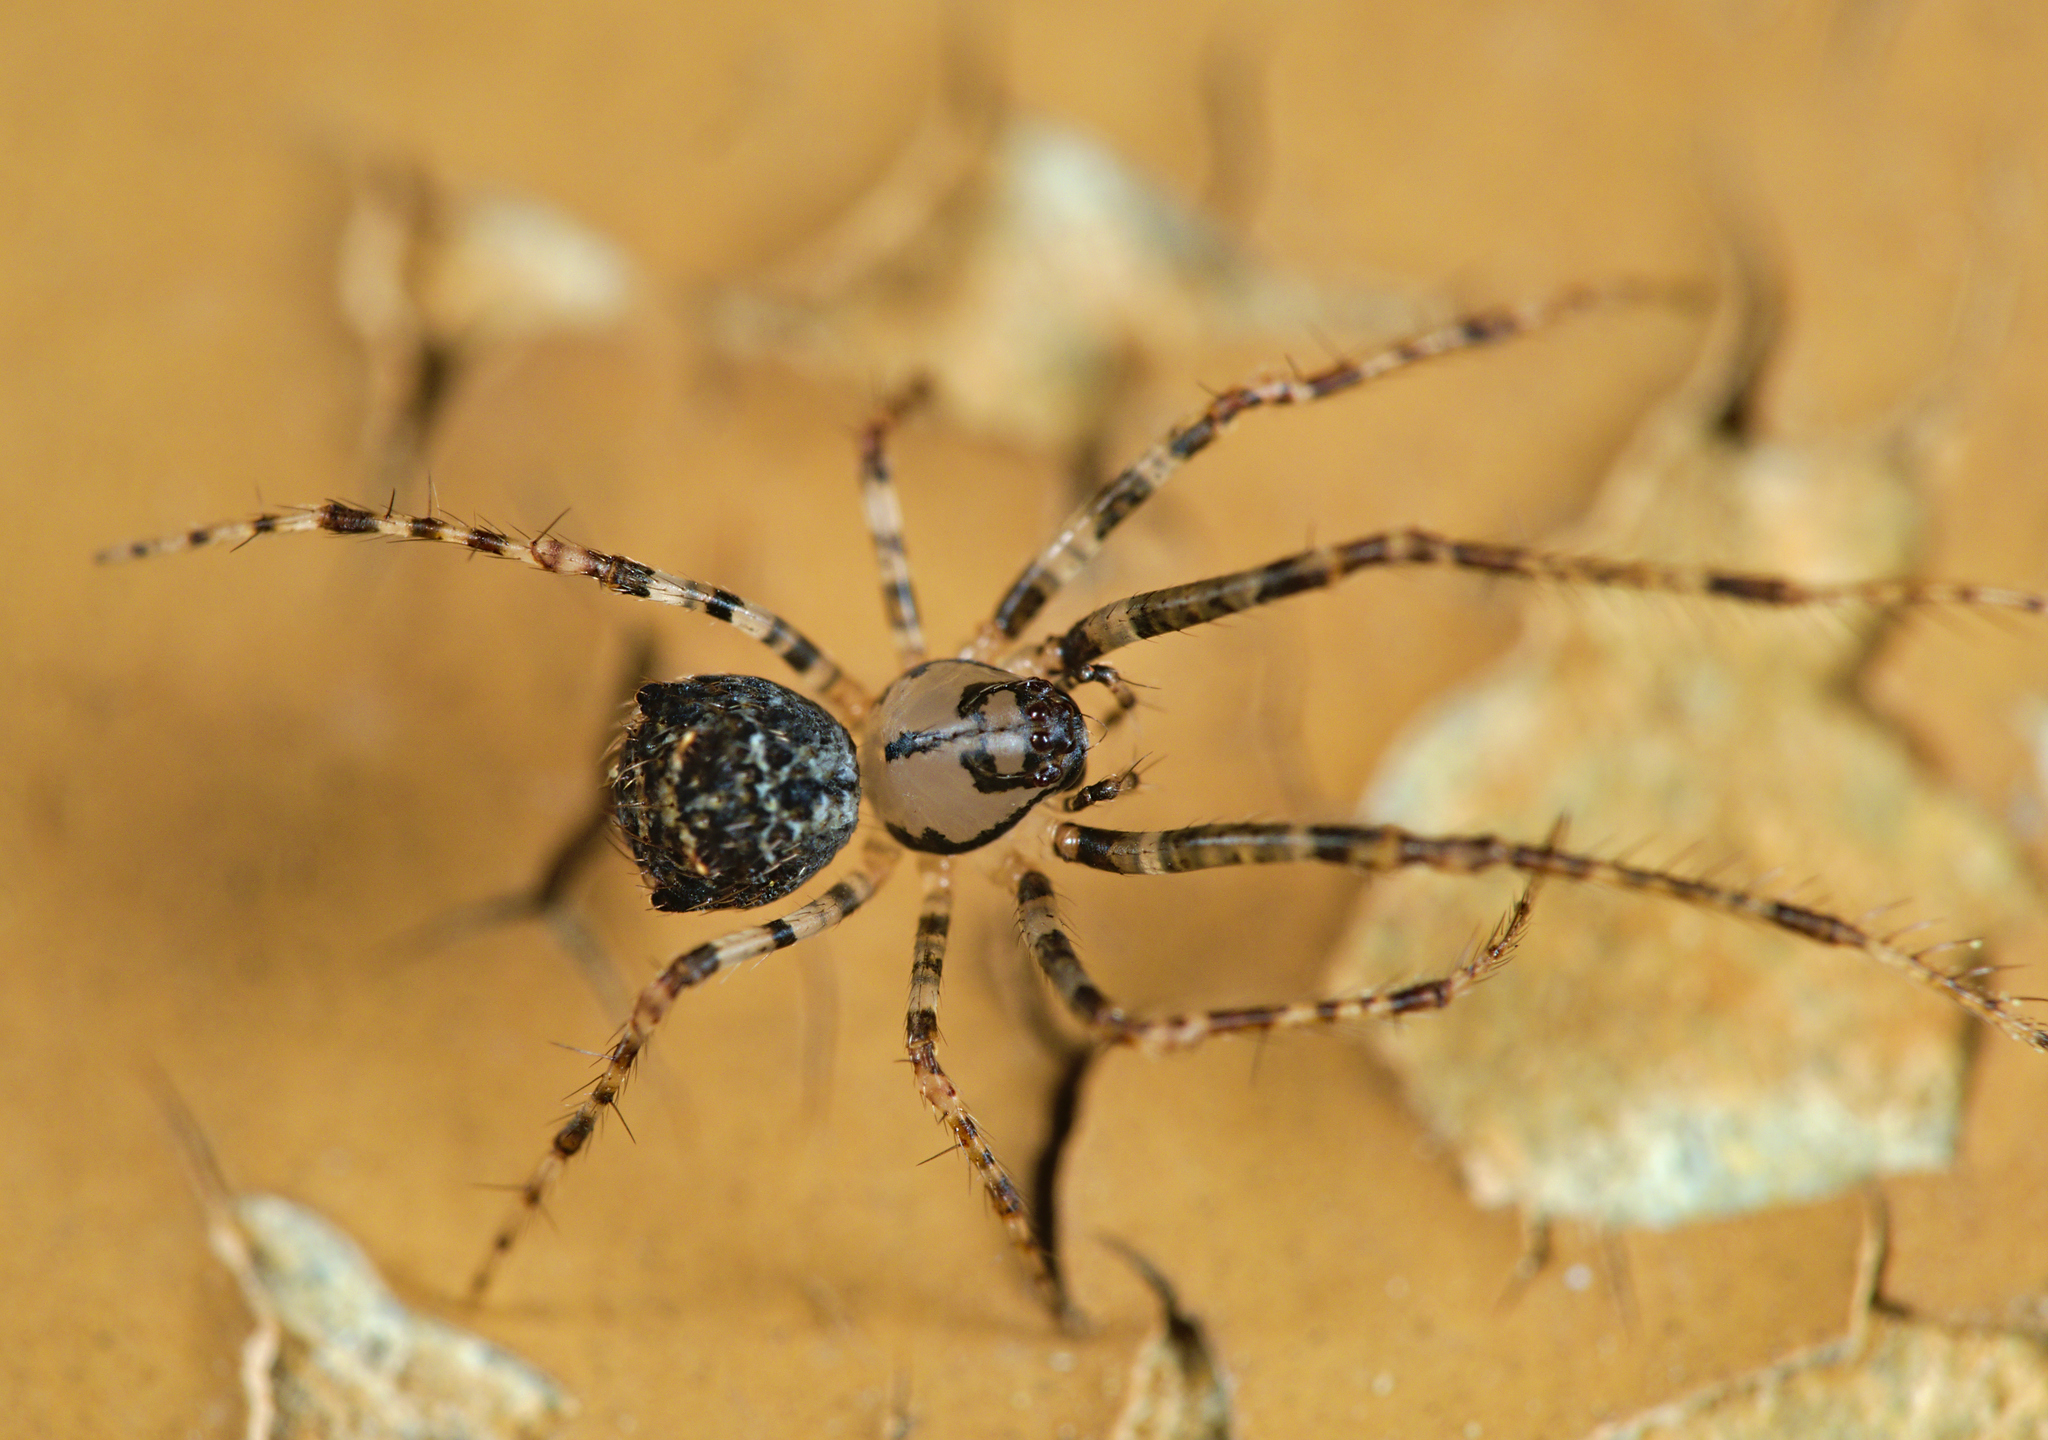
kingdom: Animalia
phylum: Arthropoda
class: Arachnida
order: Araneae
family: Mimetidae
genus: Ero
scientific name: Ero aphana
